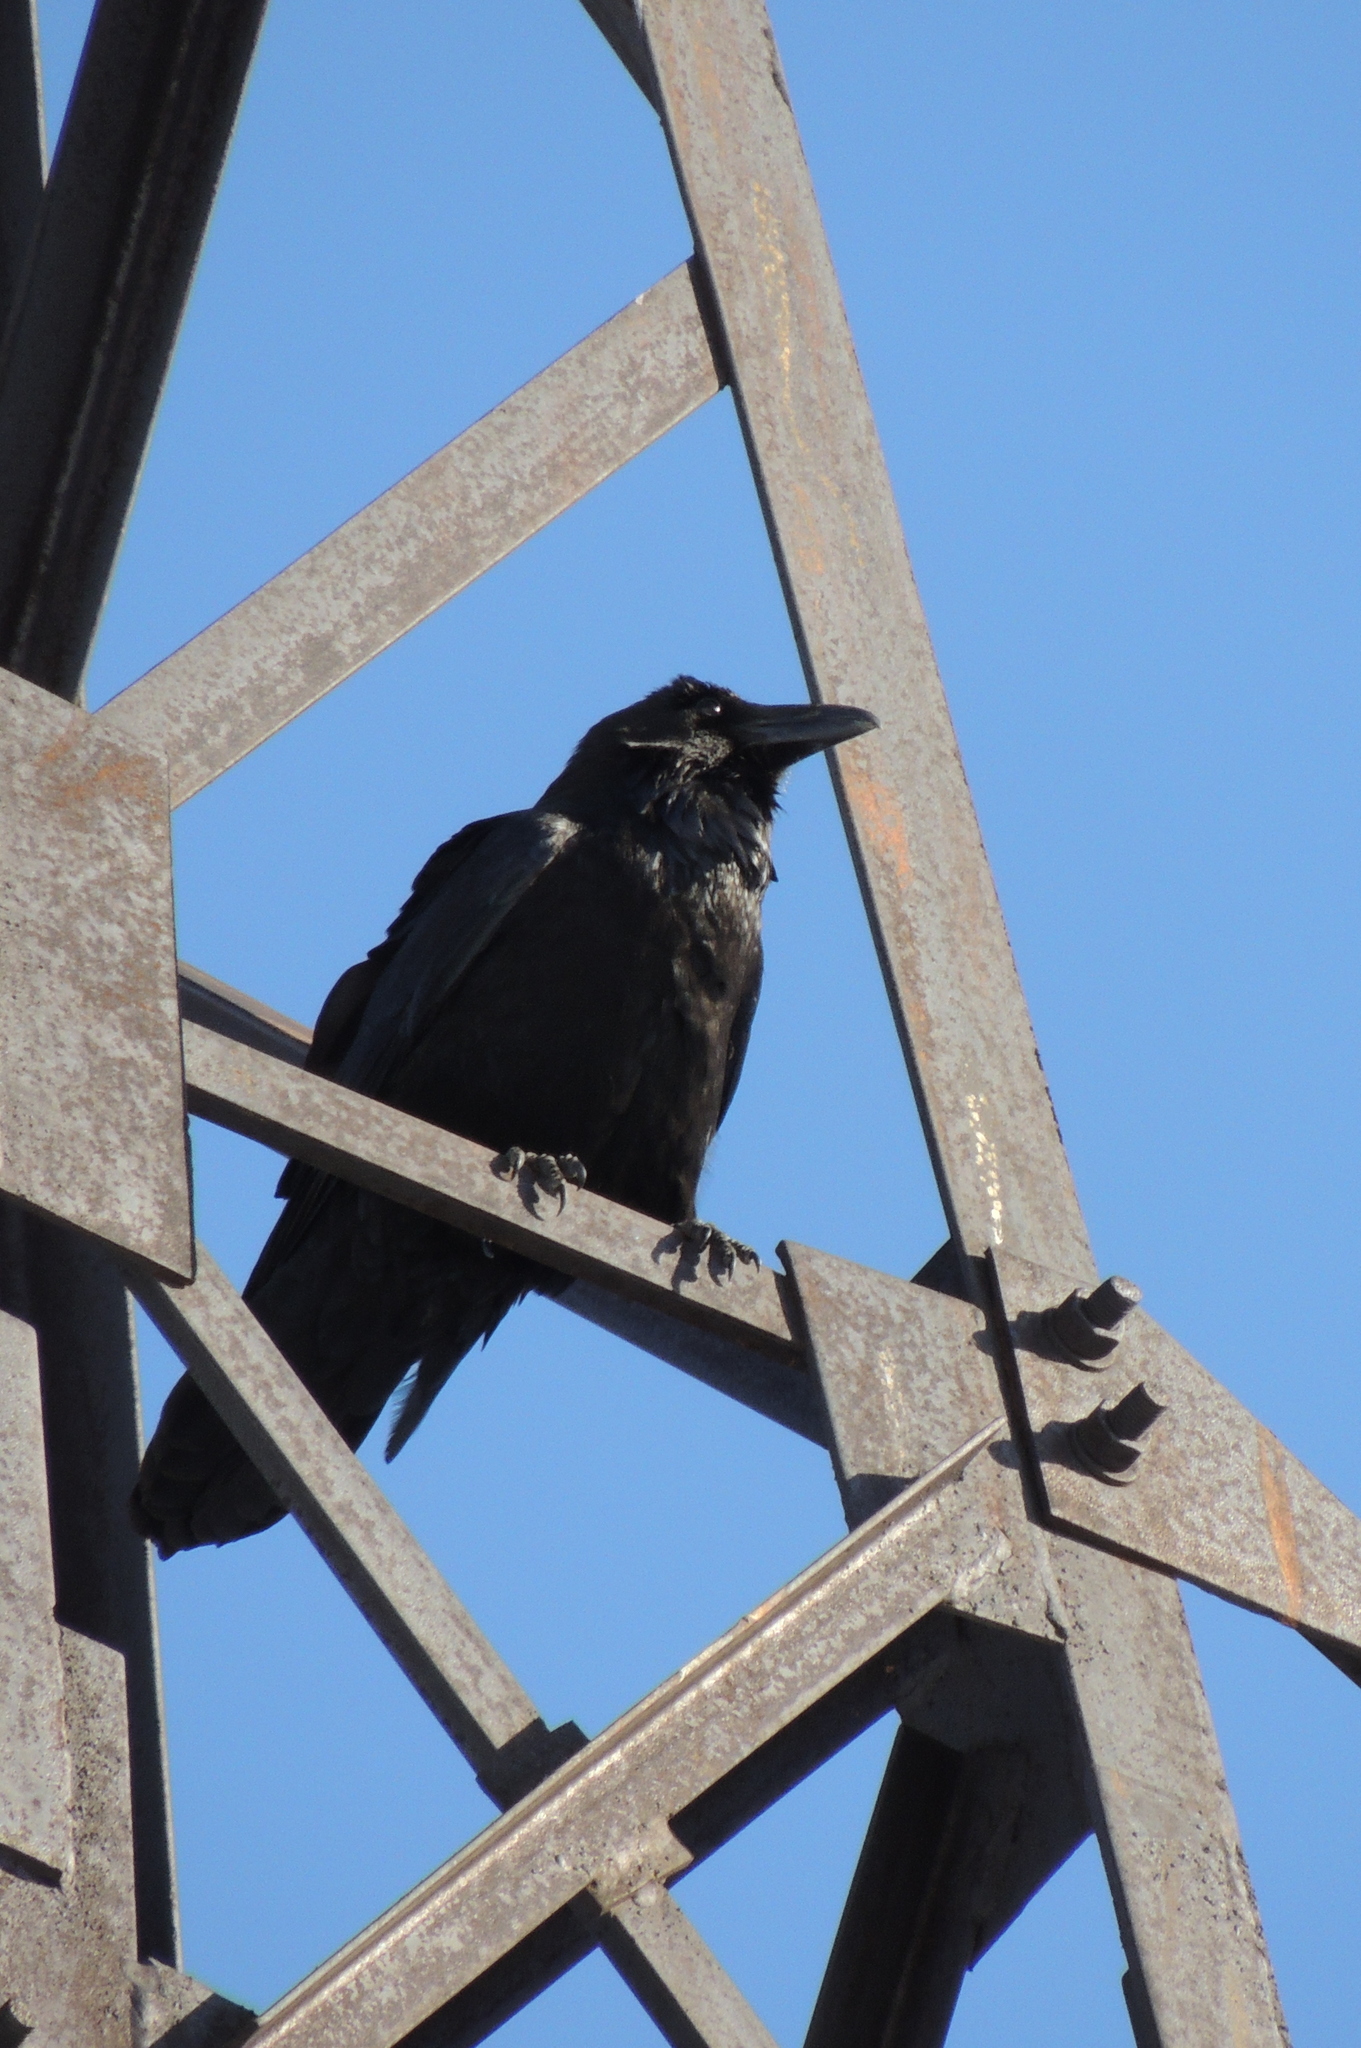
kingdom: Animalia
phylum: Chordata
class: Aves
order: Passeriformes
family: Corvidae
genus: Corvus
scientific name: Corvus corax
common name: Common raven
